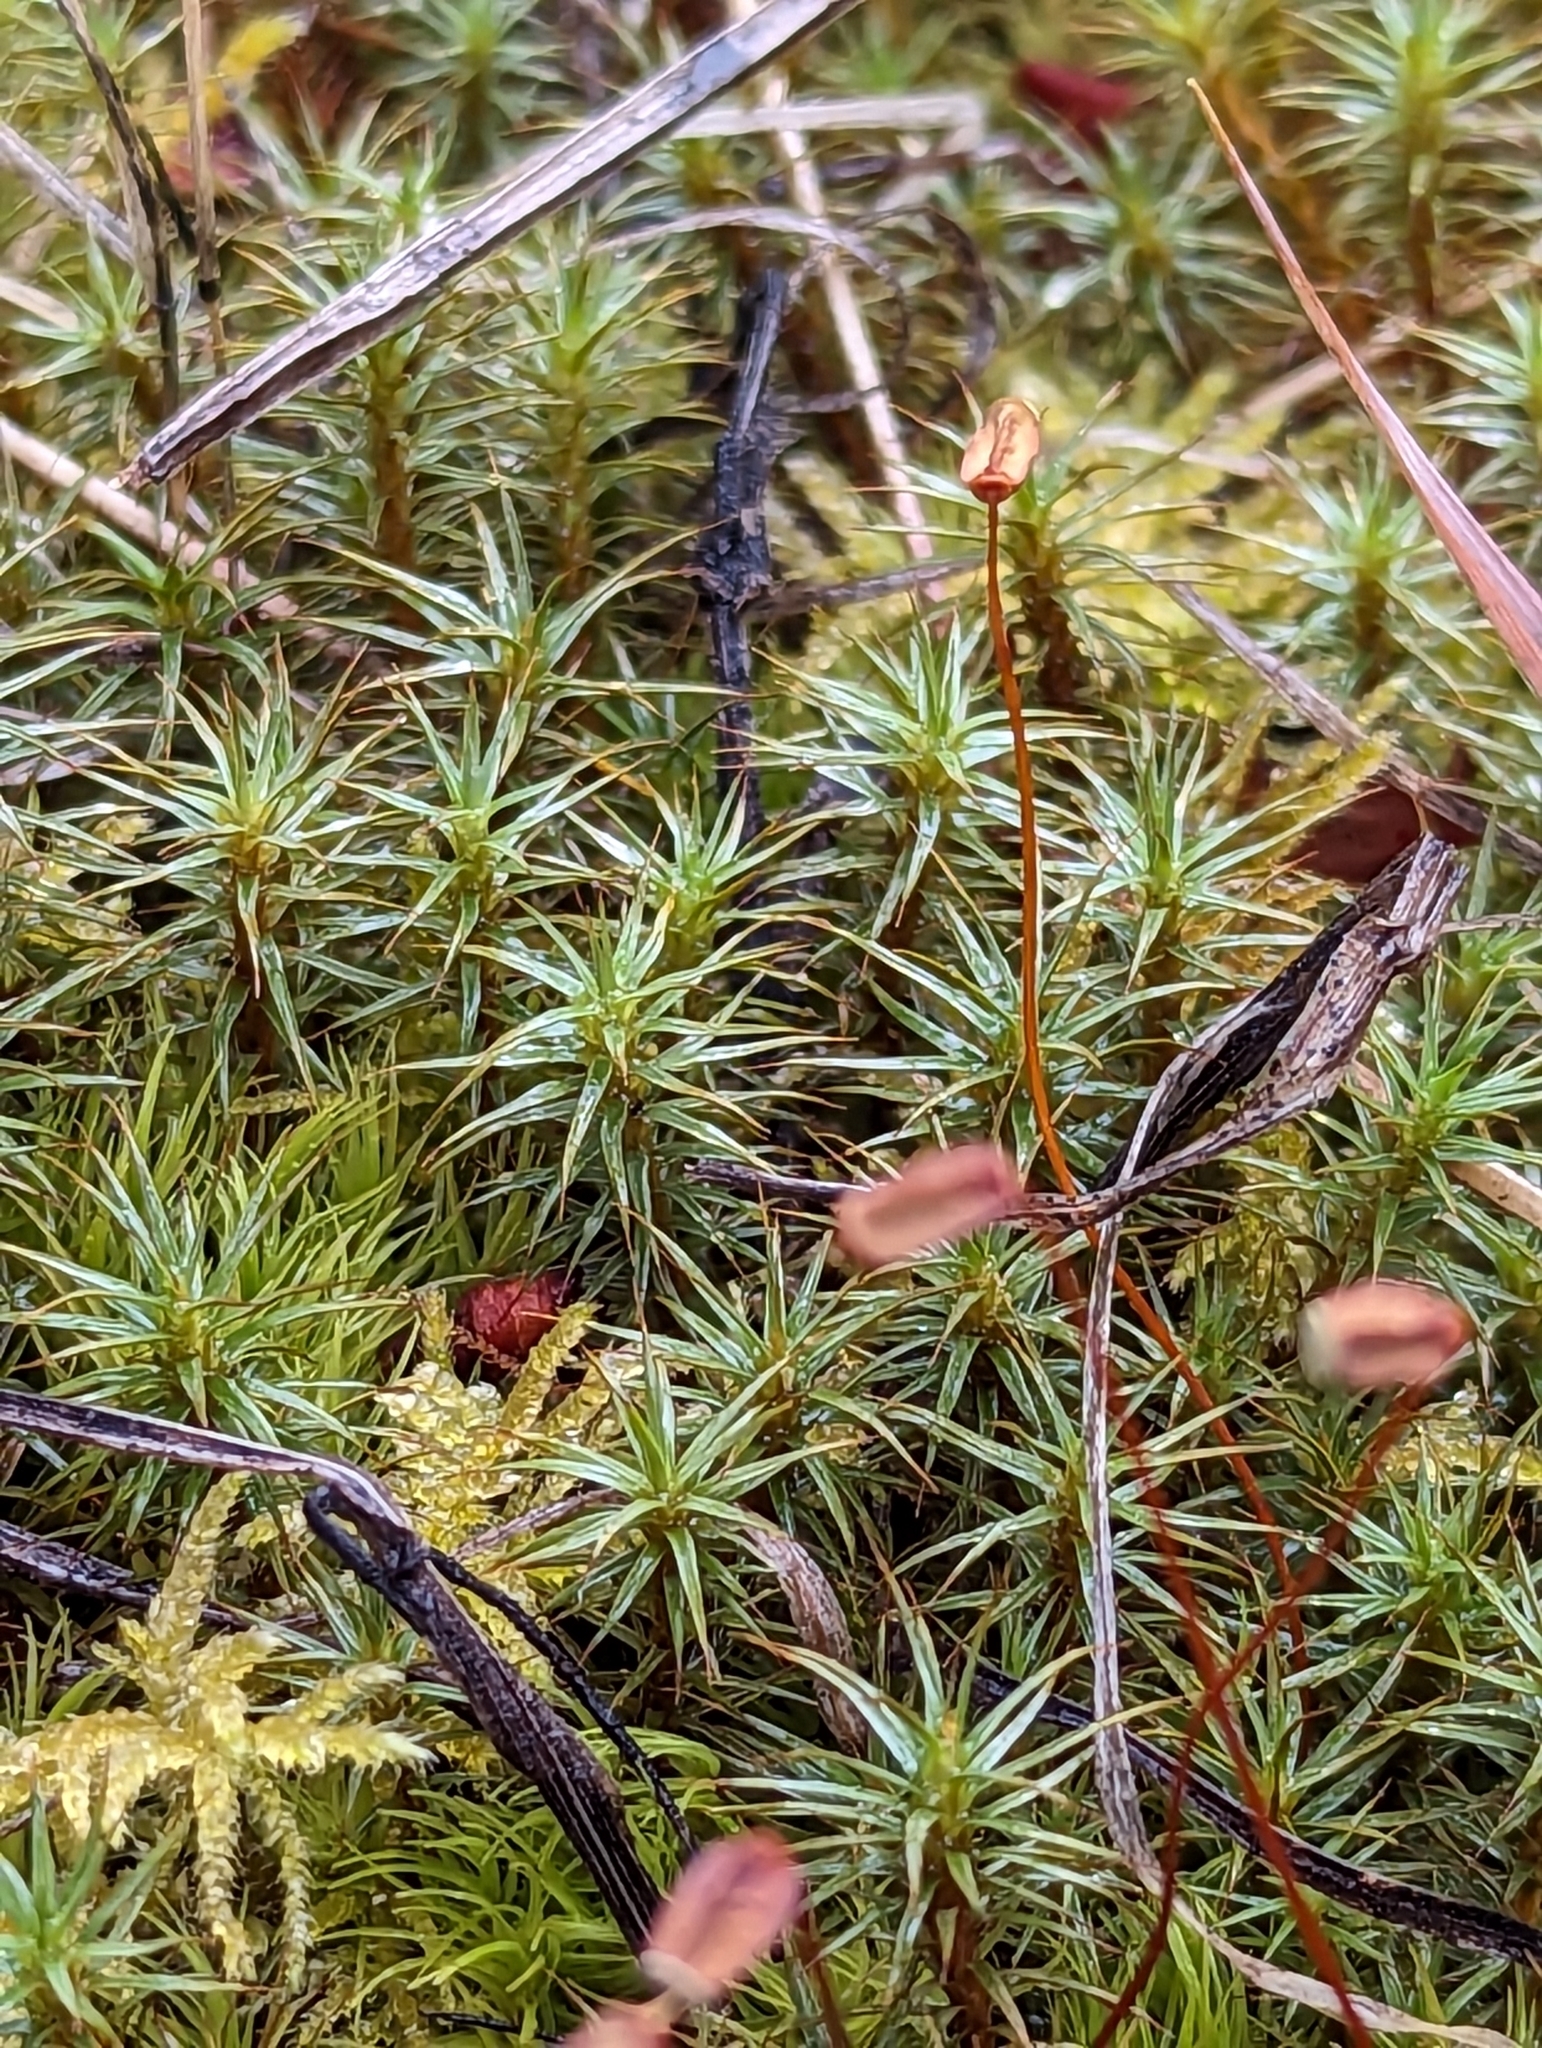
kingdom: Plantae
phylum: Bryophyta
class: Polytrichopsida
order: Polytrichales
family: Polytrichaceae
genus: Polytrichum
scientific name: Polytrichum juniperinum
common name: Juniper haircap moss
